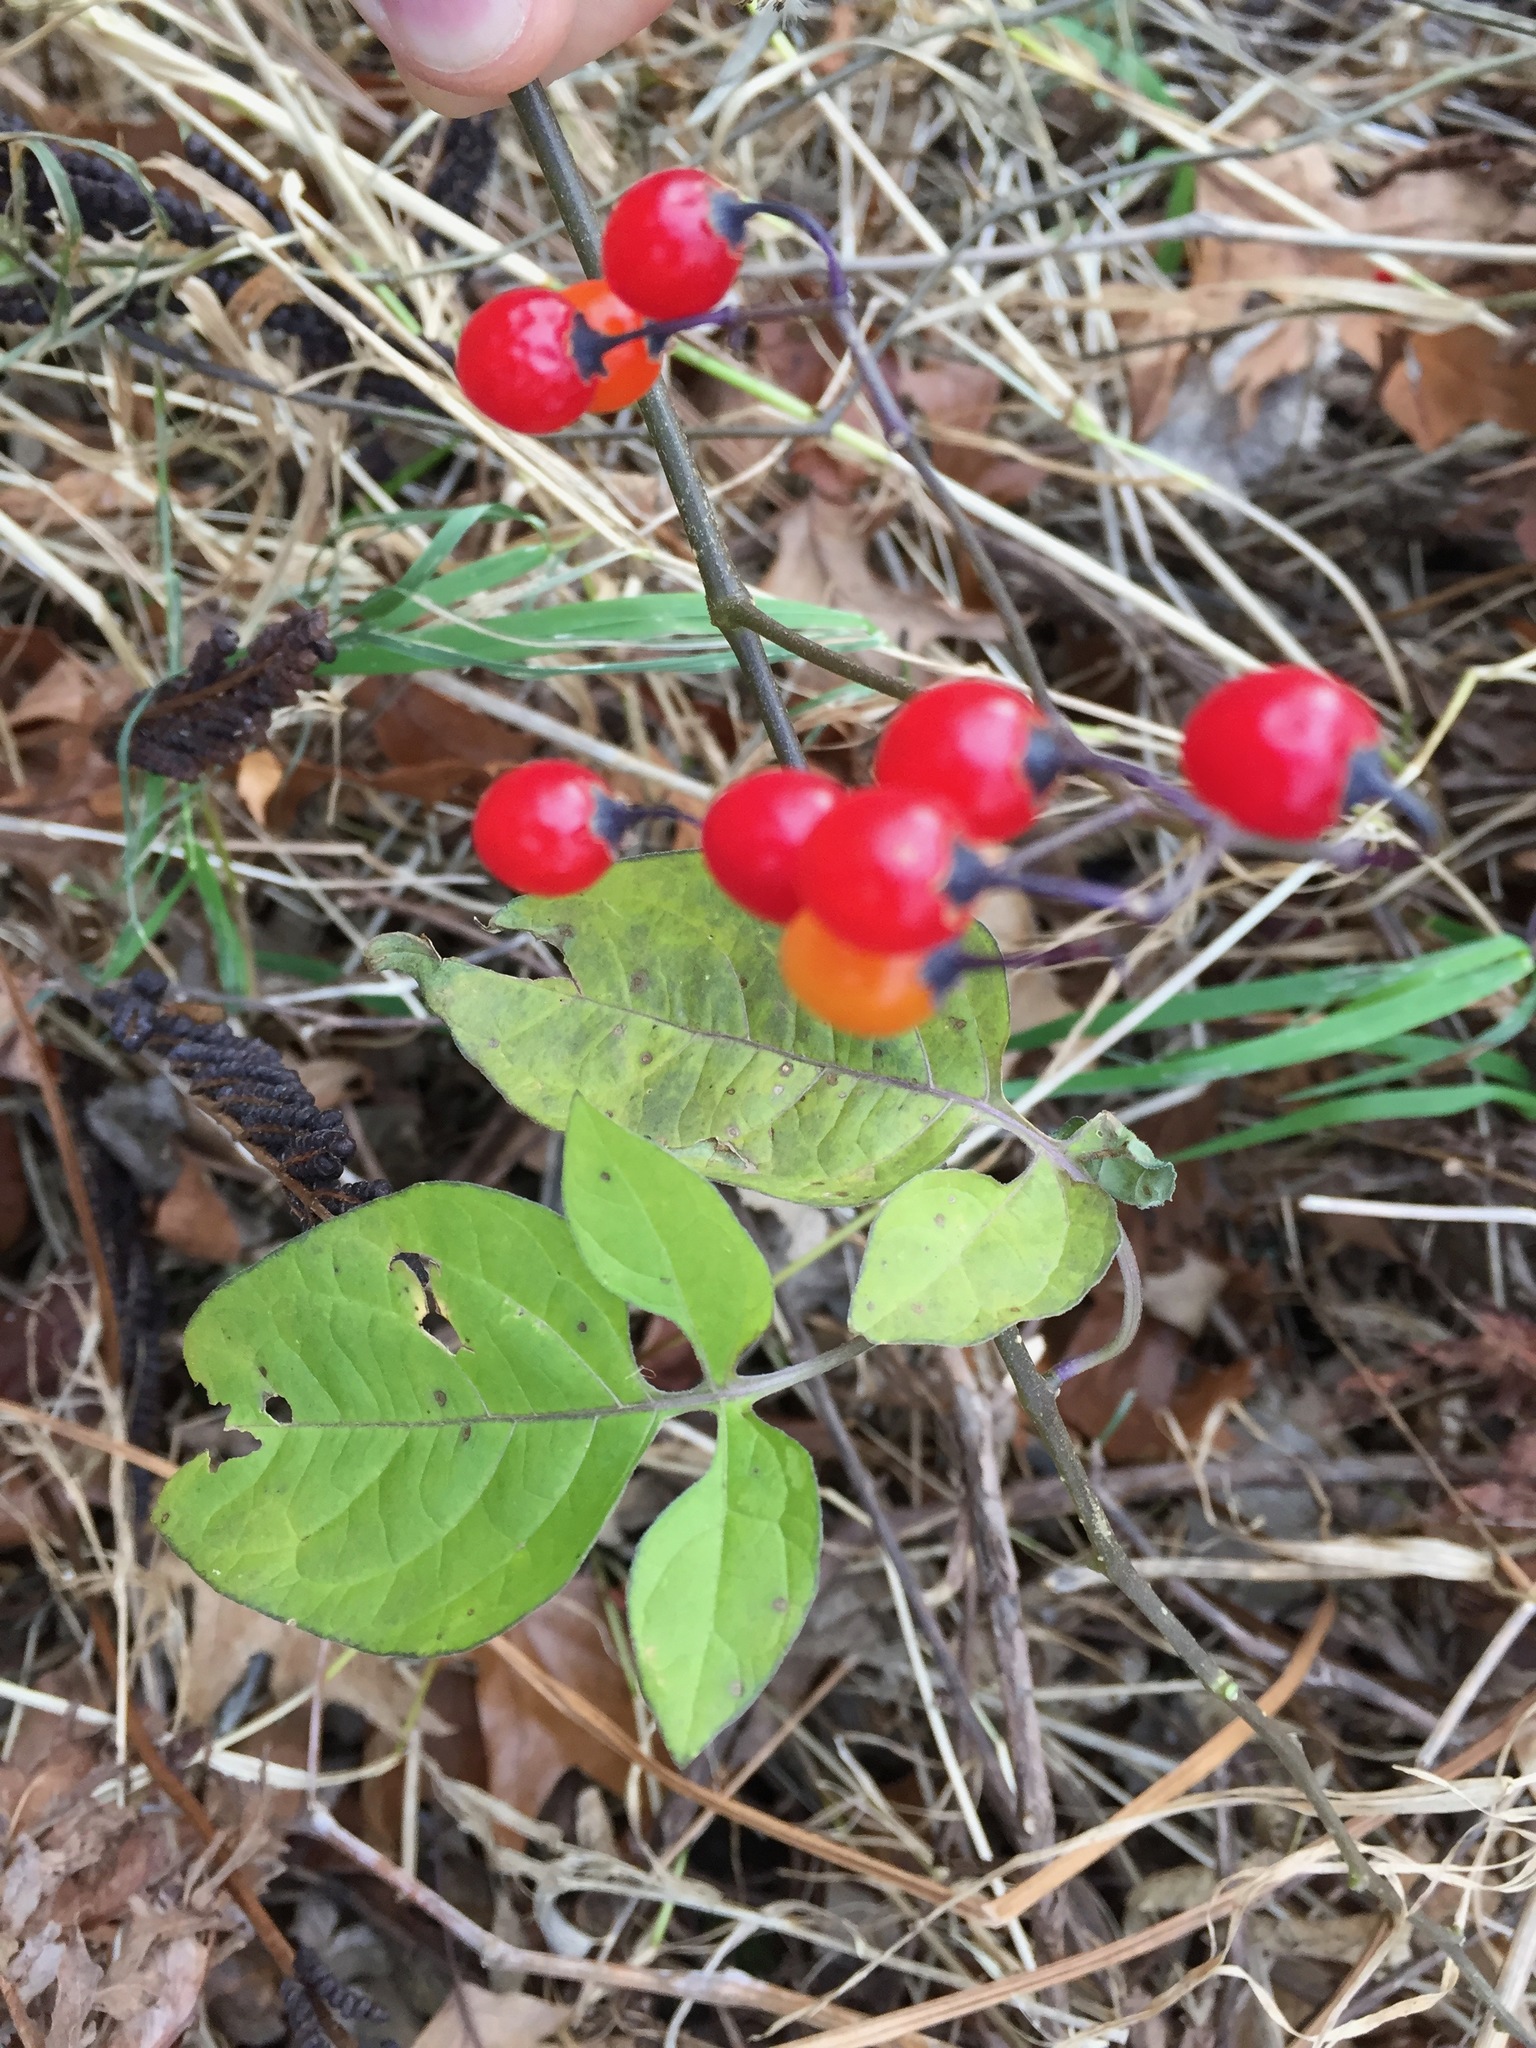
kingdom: Plantae
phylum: Tracheophyta
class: Magnoliopsida
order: Solanales
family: Solanaceae
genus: Solanum
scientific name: Solanum dulcamara
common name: Climbing nightshade
